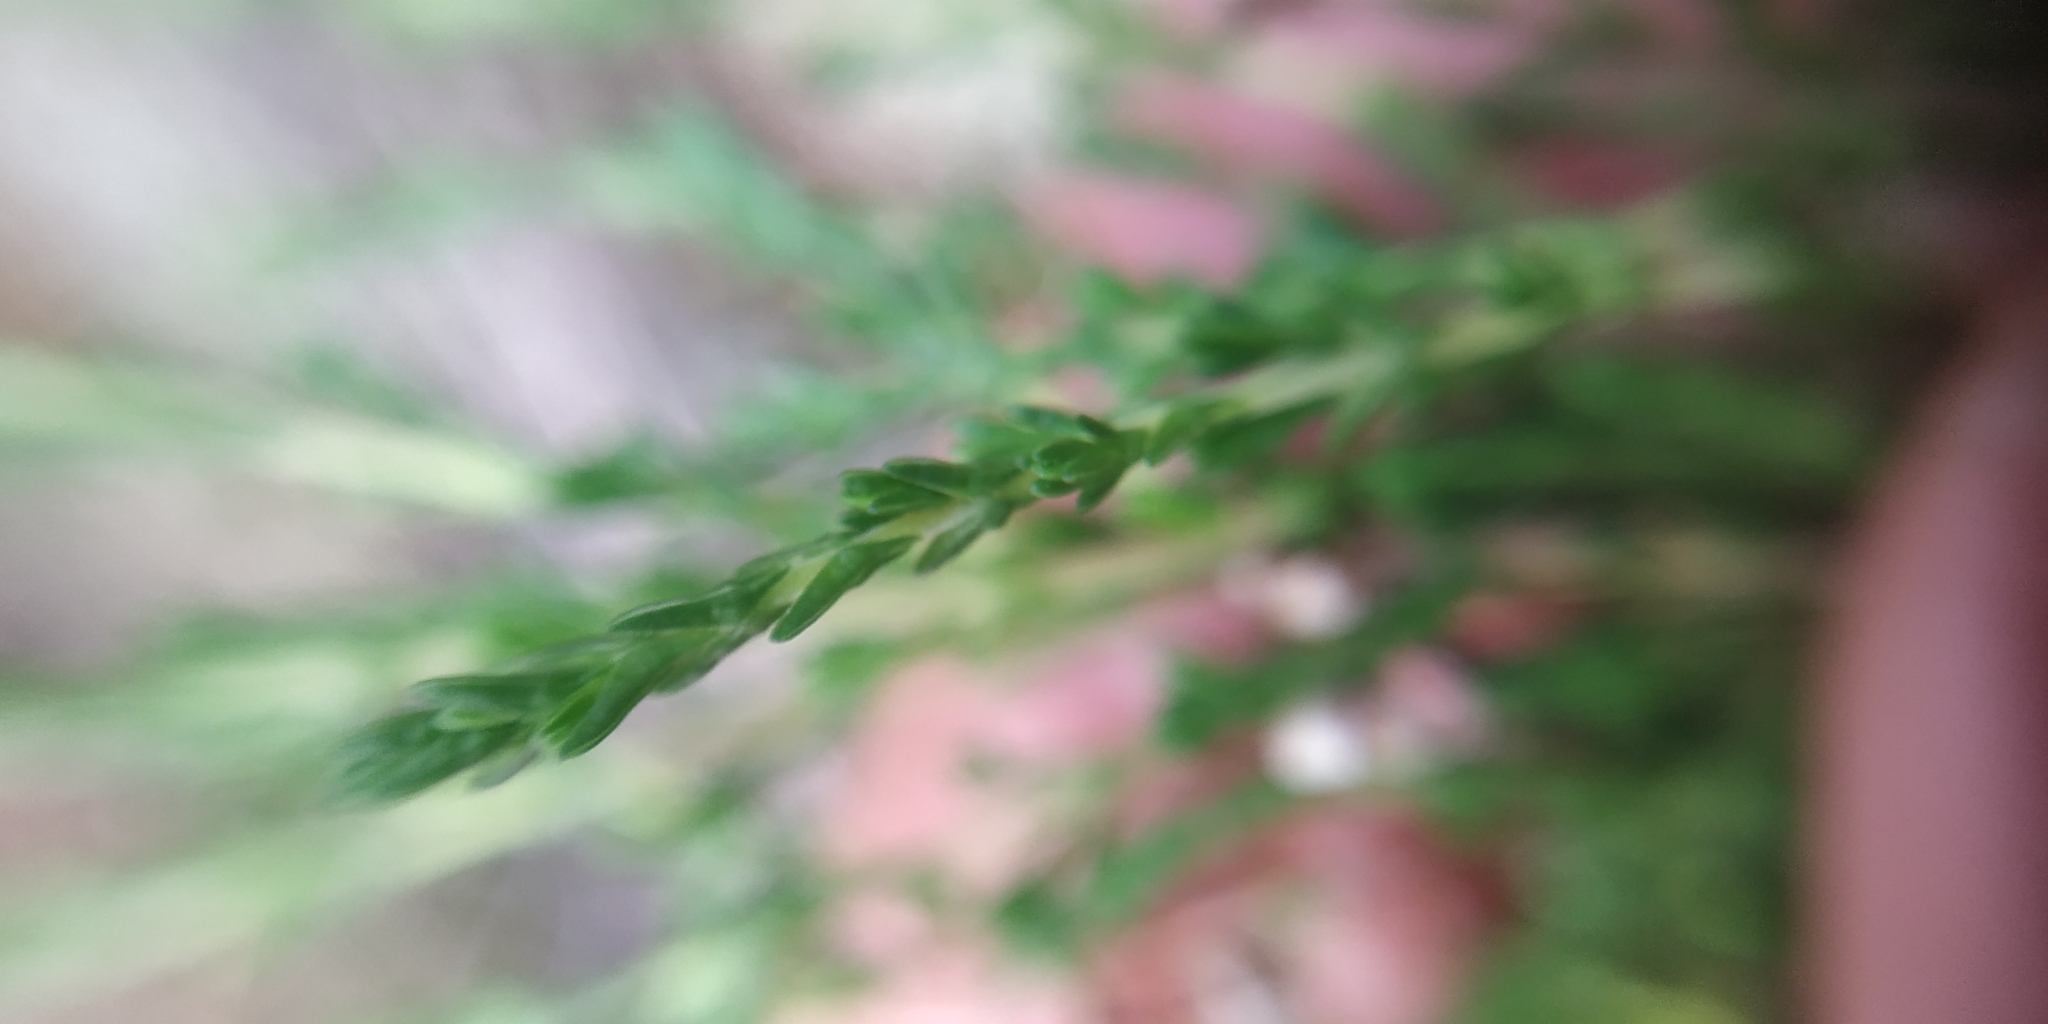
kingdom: Plantae
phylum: Tracheophyta
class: Magnoliopsida
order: Ericales
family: Ericaceae
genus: Calluna
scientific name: Calluna vulgaris
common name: Heather
